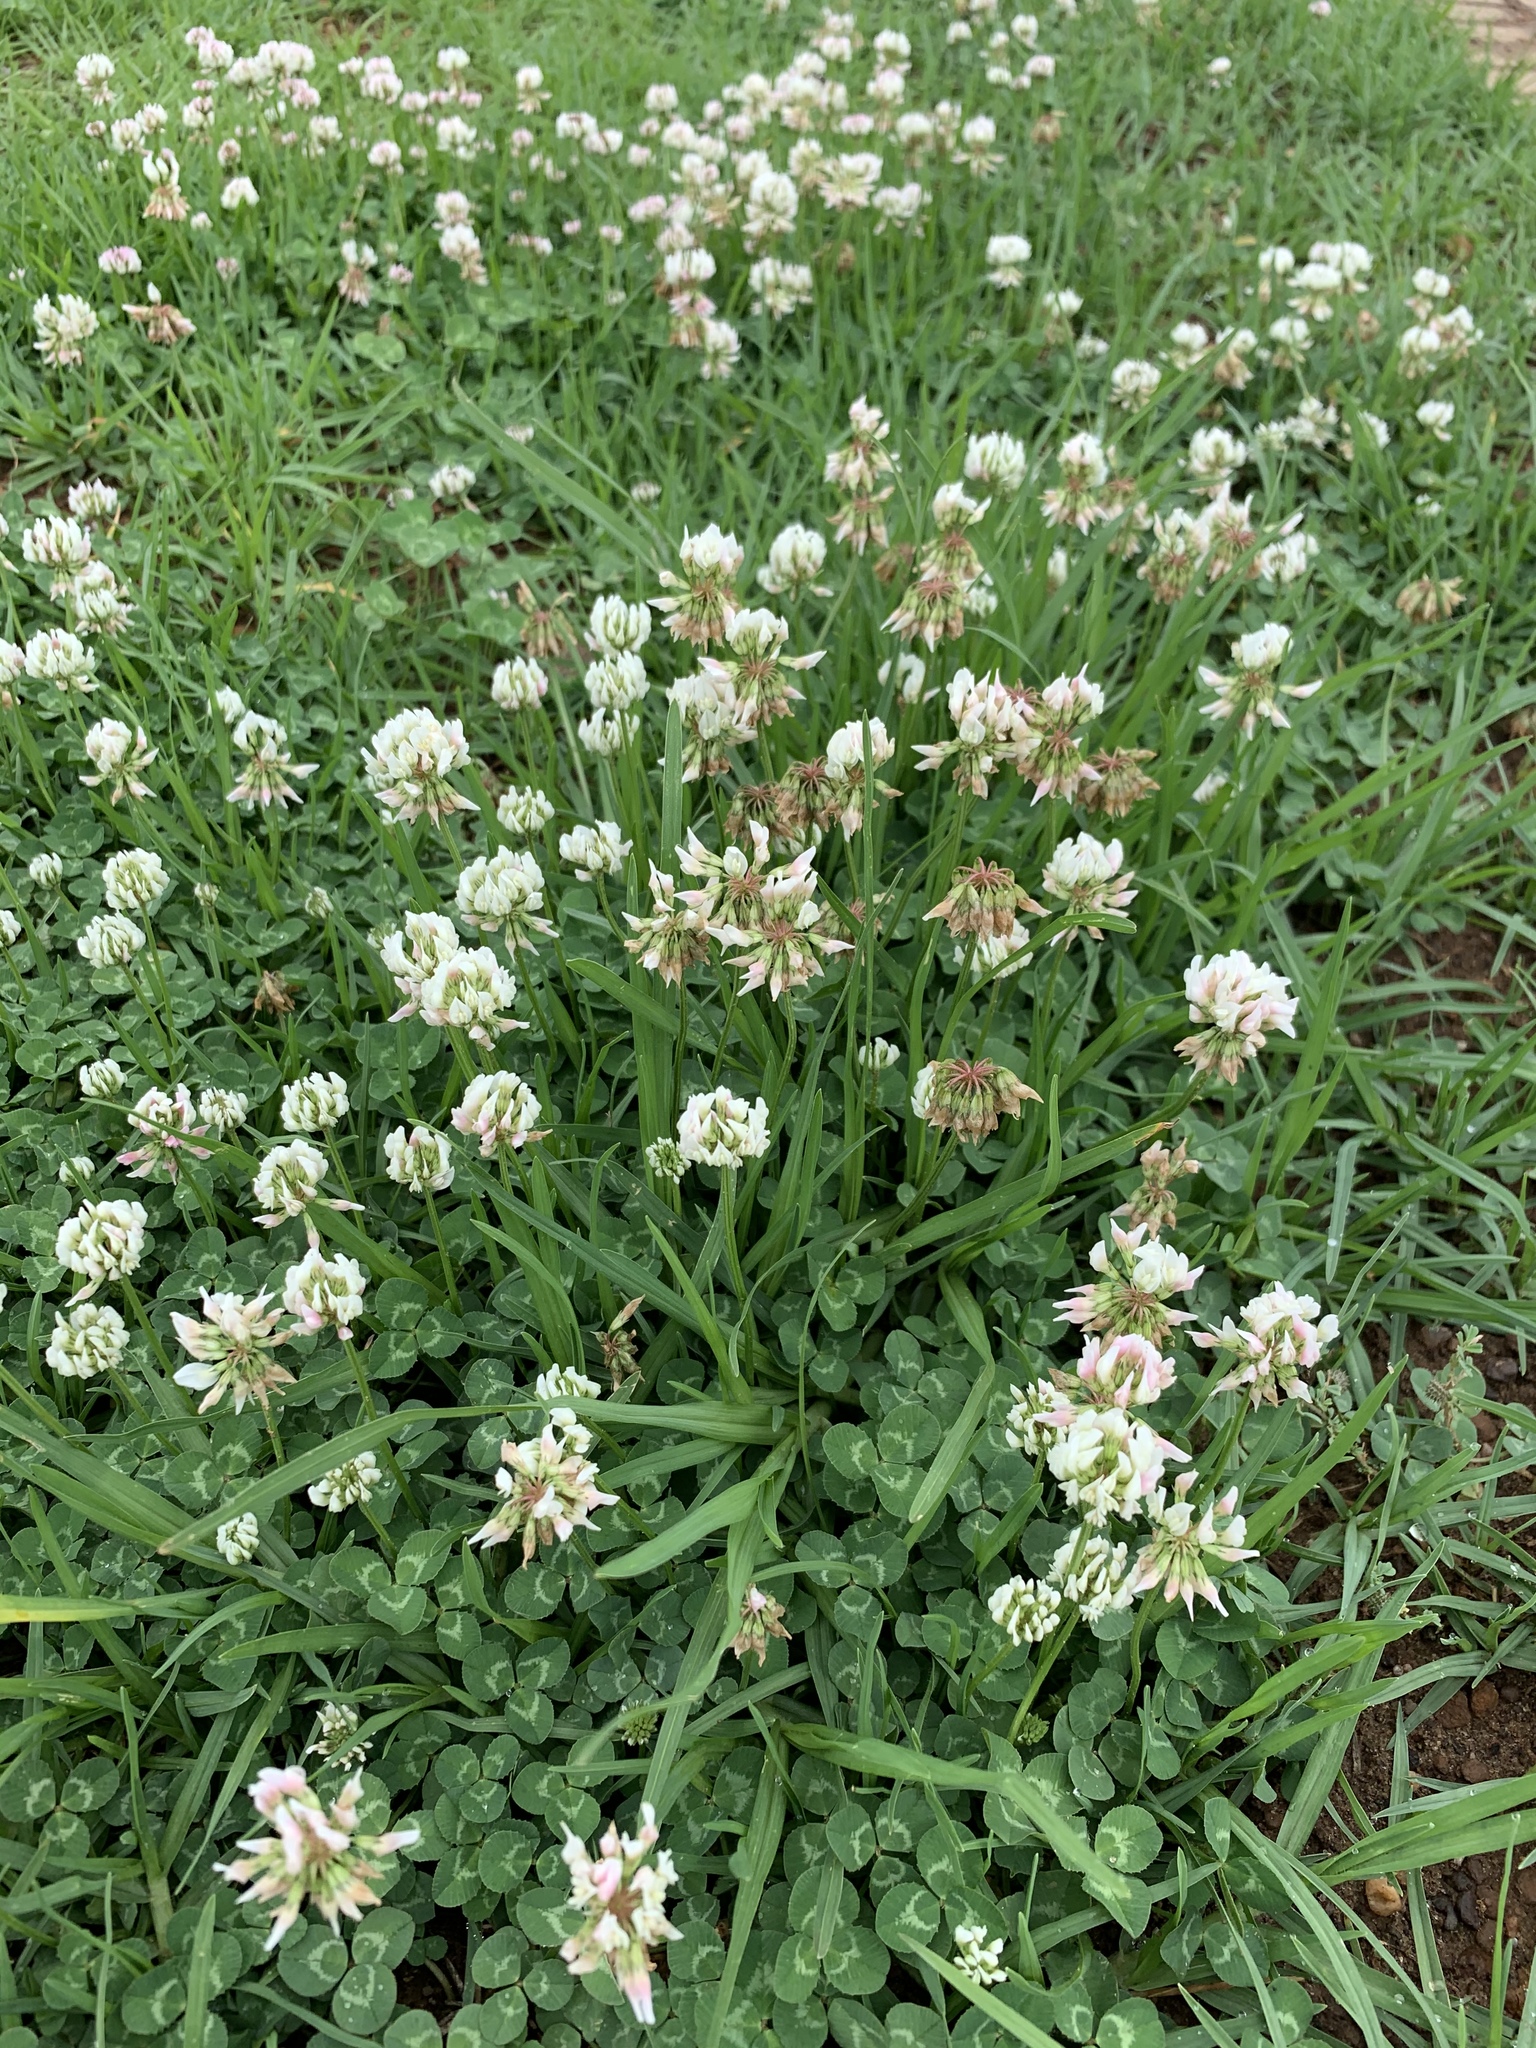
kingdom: Plantae
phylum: Tracheophyta
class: Magnoliopsida
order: Fabales
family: Fabaceae
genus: Trifolium
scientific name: Trifolium repens
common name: White clover
